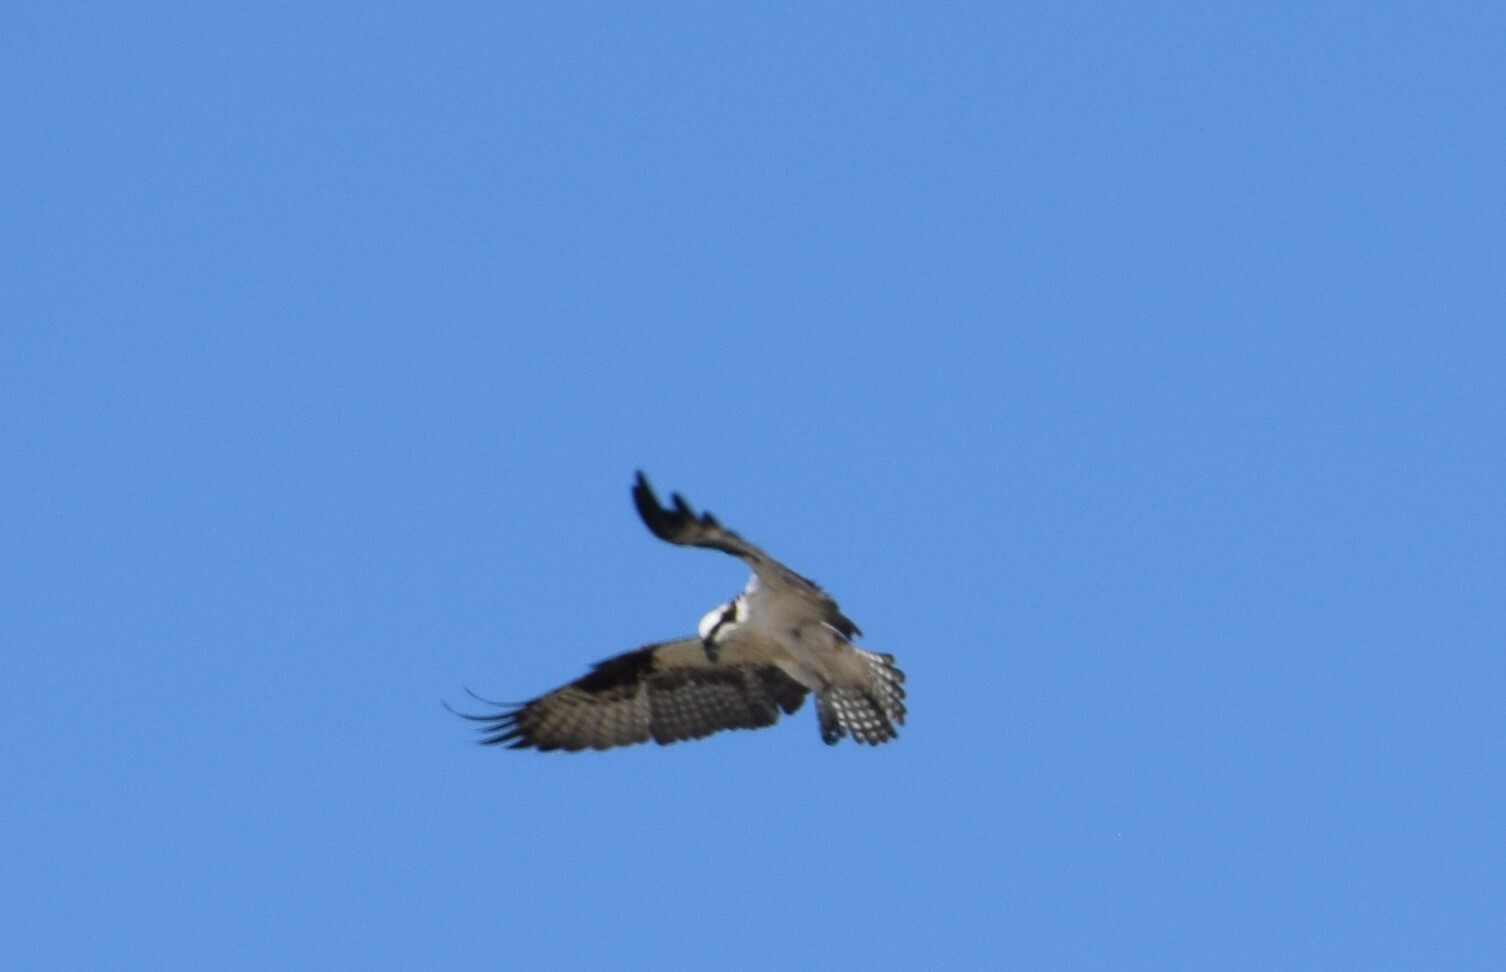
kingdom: Animalia
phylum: Chordata
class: Aves
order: Accipitriformes
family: Pandionidae
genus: Pandion
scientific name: Pandion haliaetus
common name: Osprey
